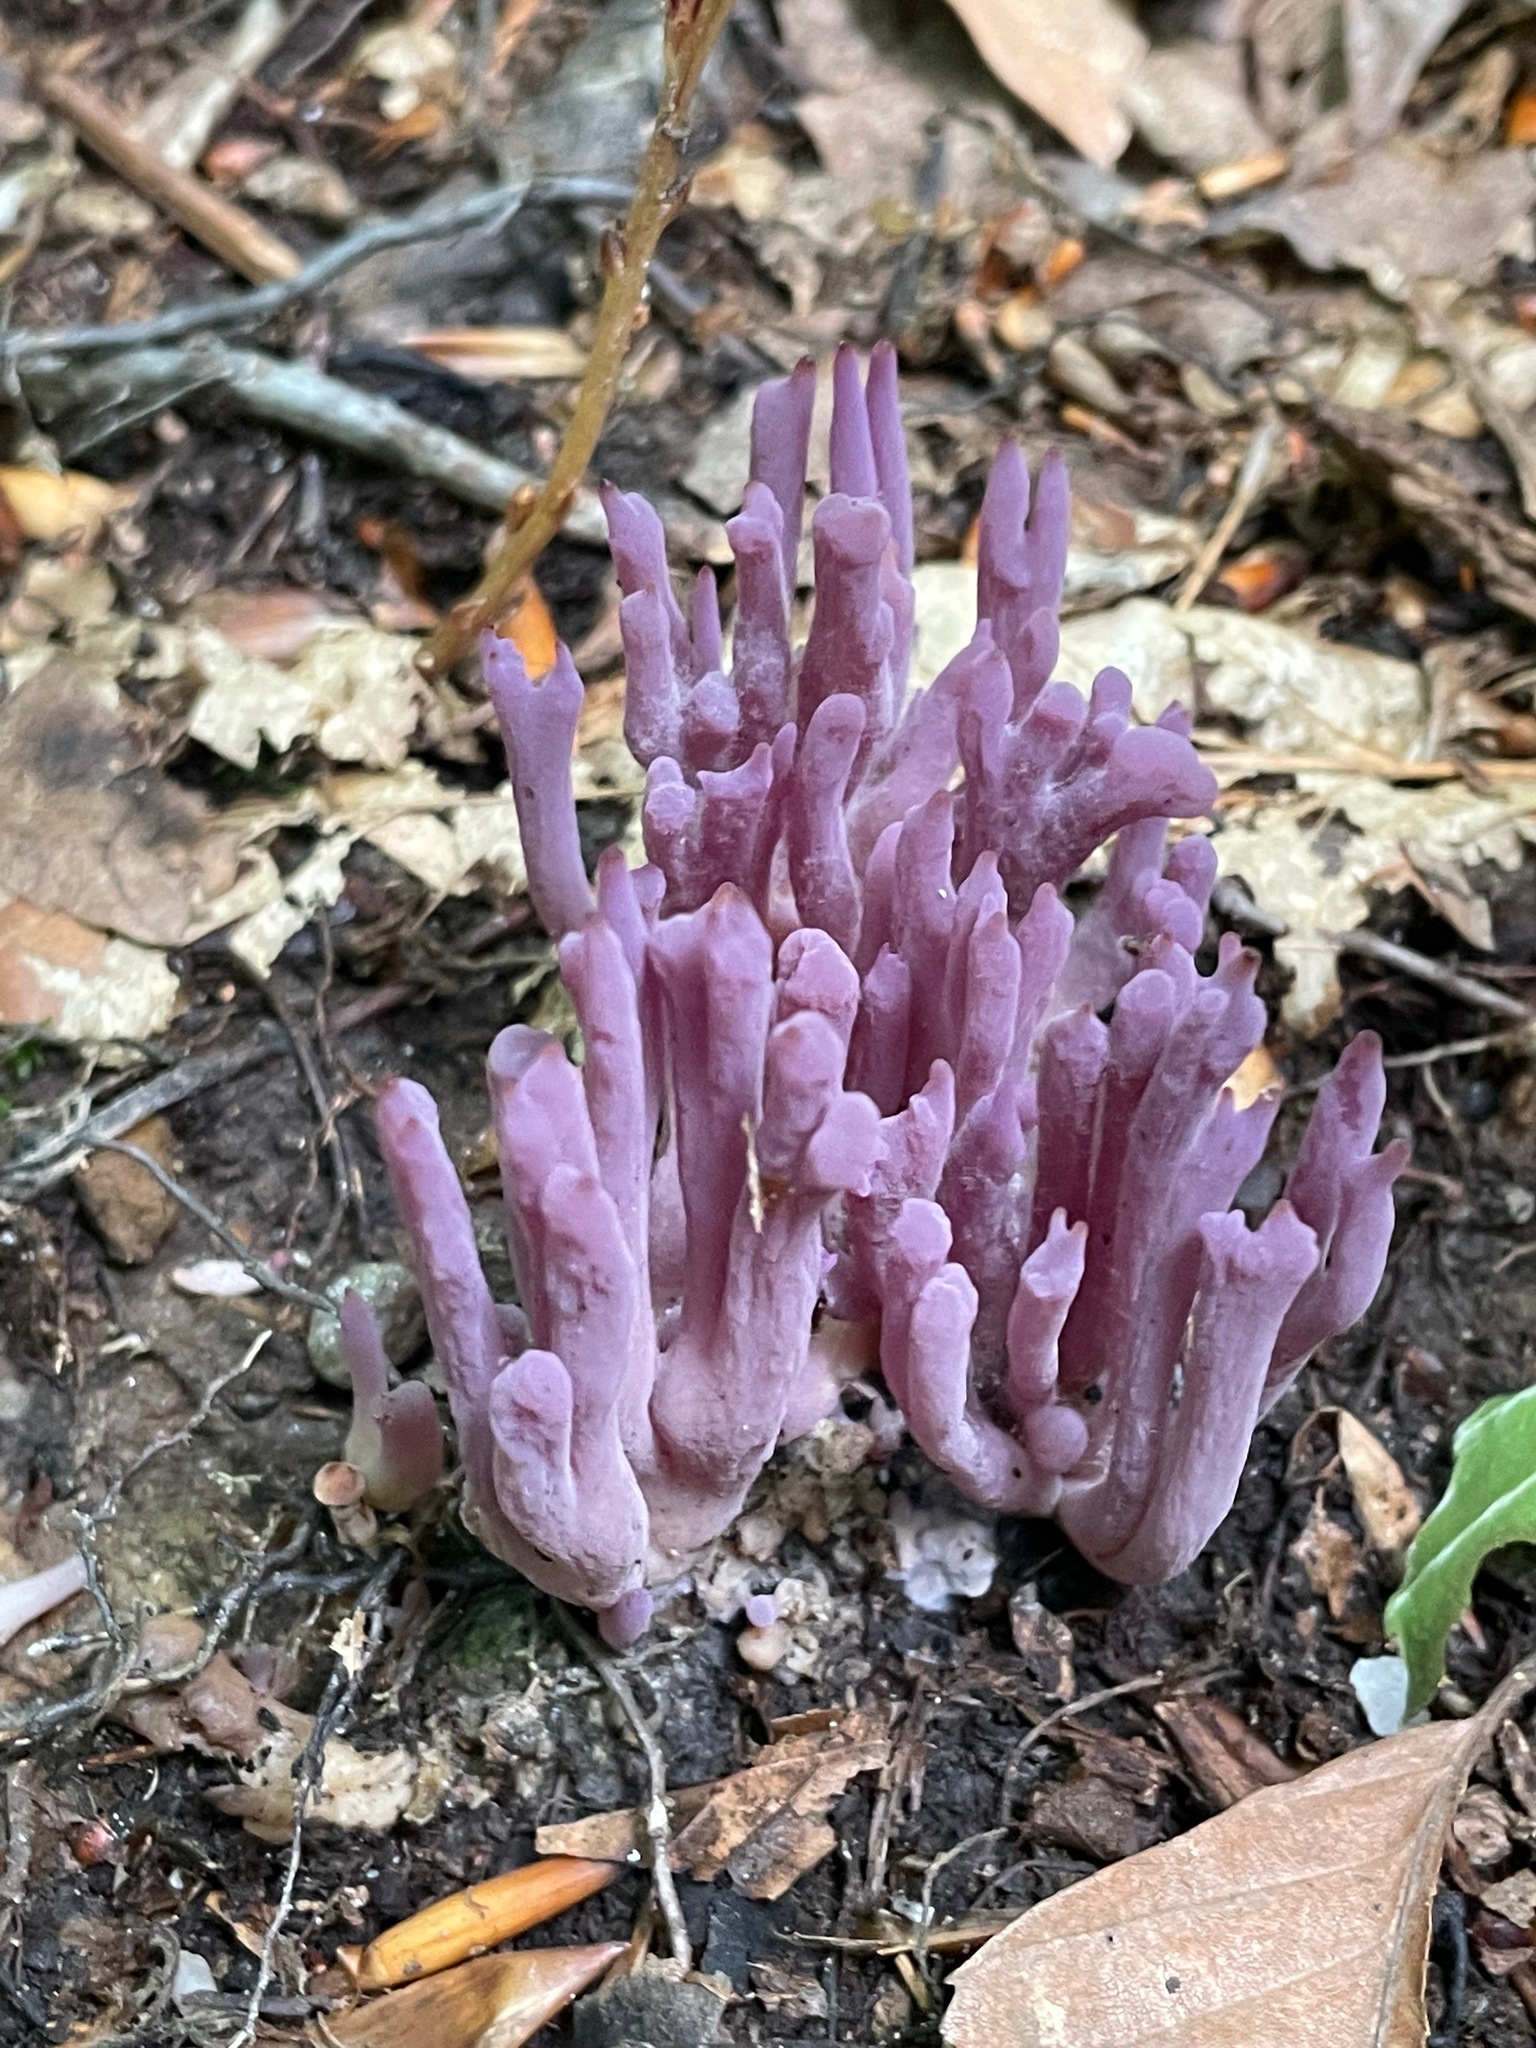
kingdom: Fungi
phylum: Basidiomycota
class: Agaricomycetes
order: Agaricales
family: Clavariaceae
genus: Clavaria
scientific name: Clavaria zollingeri
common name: Violet coral
